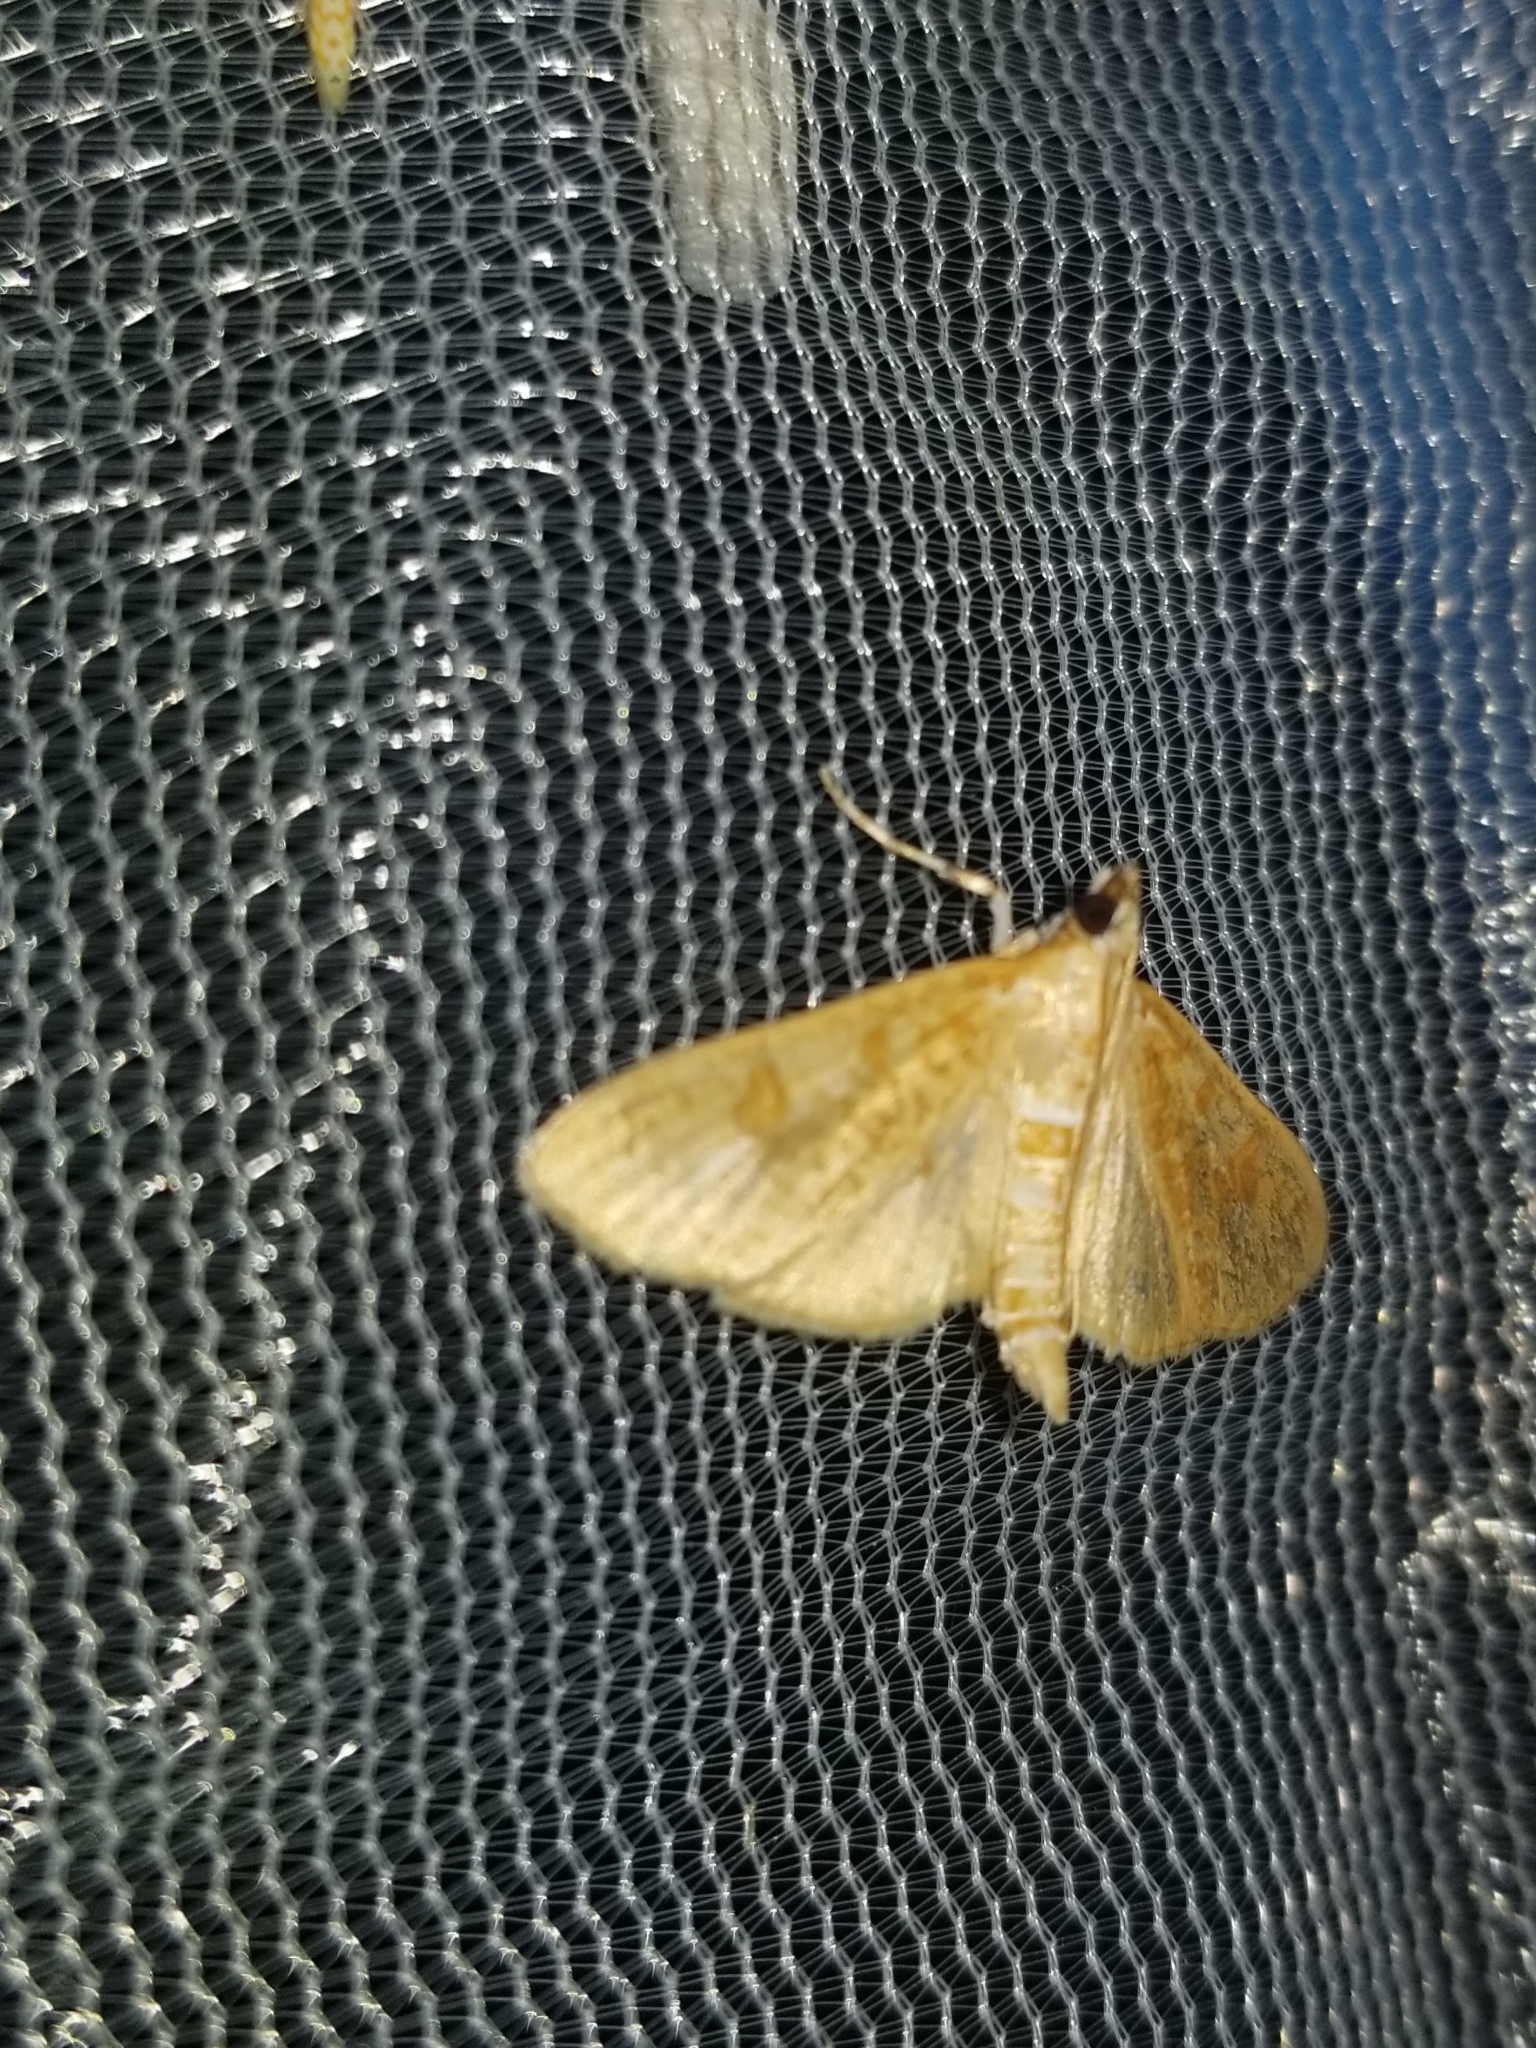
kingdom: Animalia
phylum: Arthropoda
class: Insecta
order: Lepidoptera
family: Crambidae
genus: Palpita
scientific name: Palpita freemanalis
